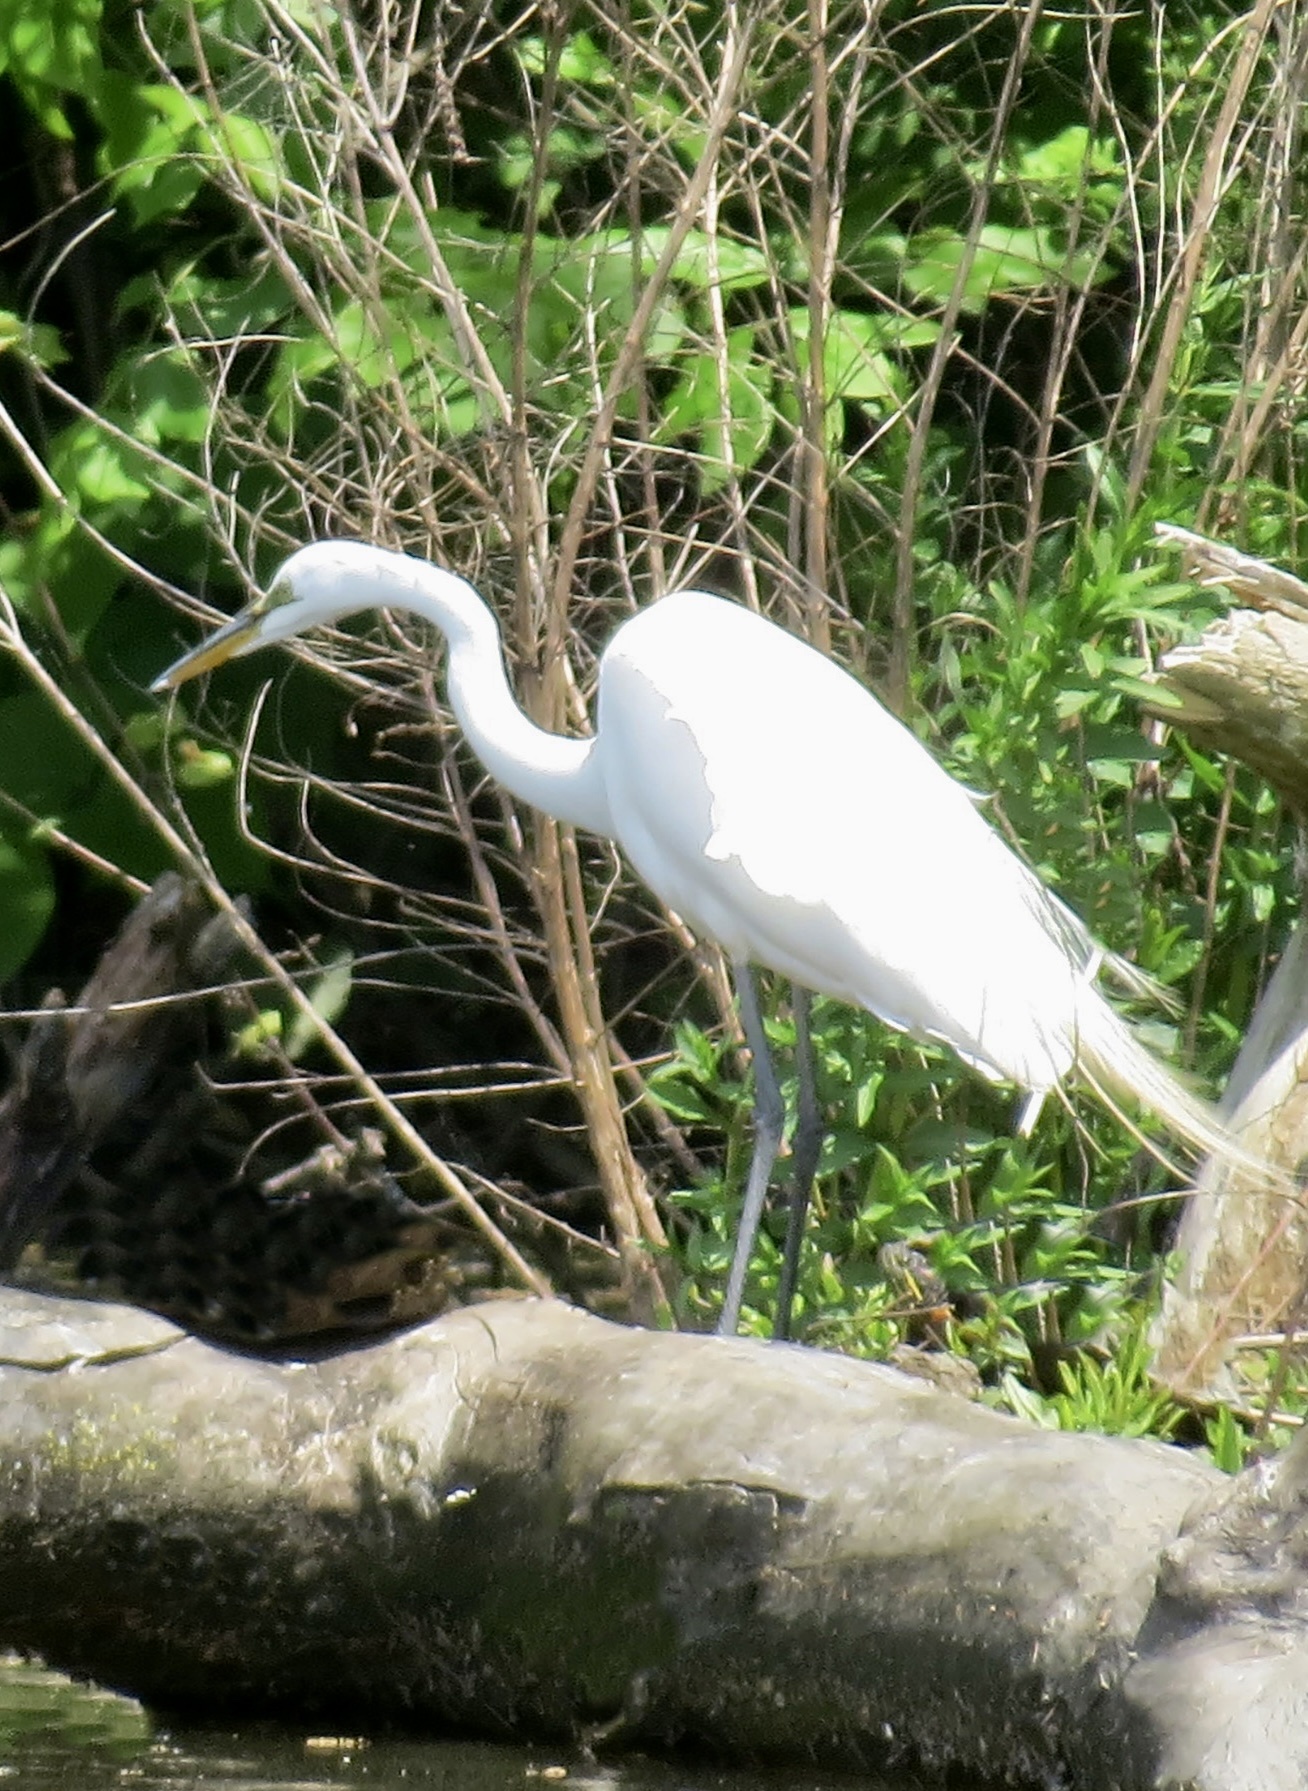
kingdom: Animalia
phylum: Chordata
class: Aves
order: Pelecaniformes
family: Ardeidae
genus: Ardea
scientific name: Ardea alba
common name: Great egret
